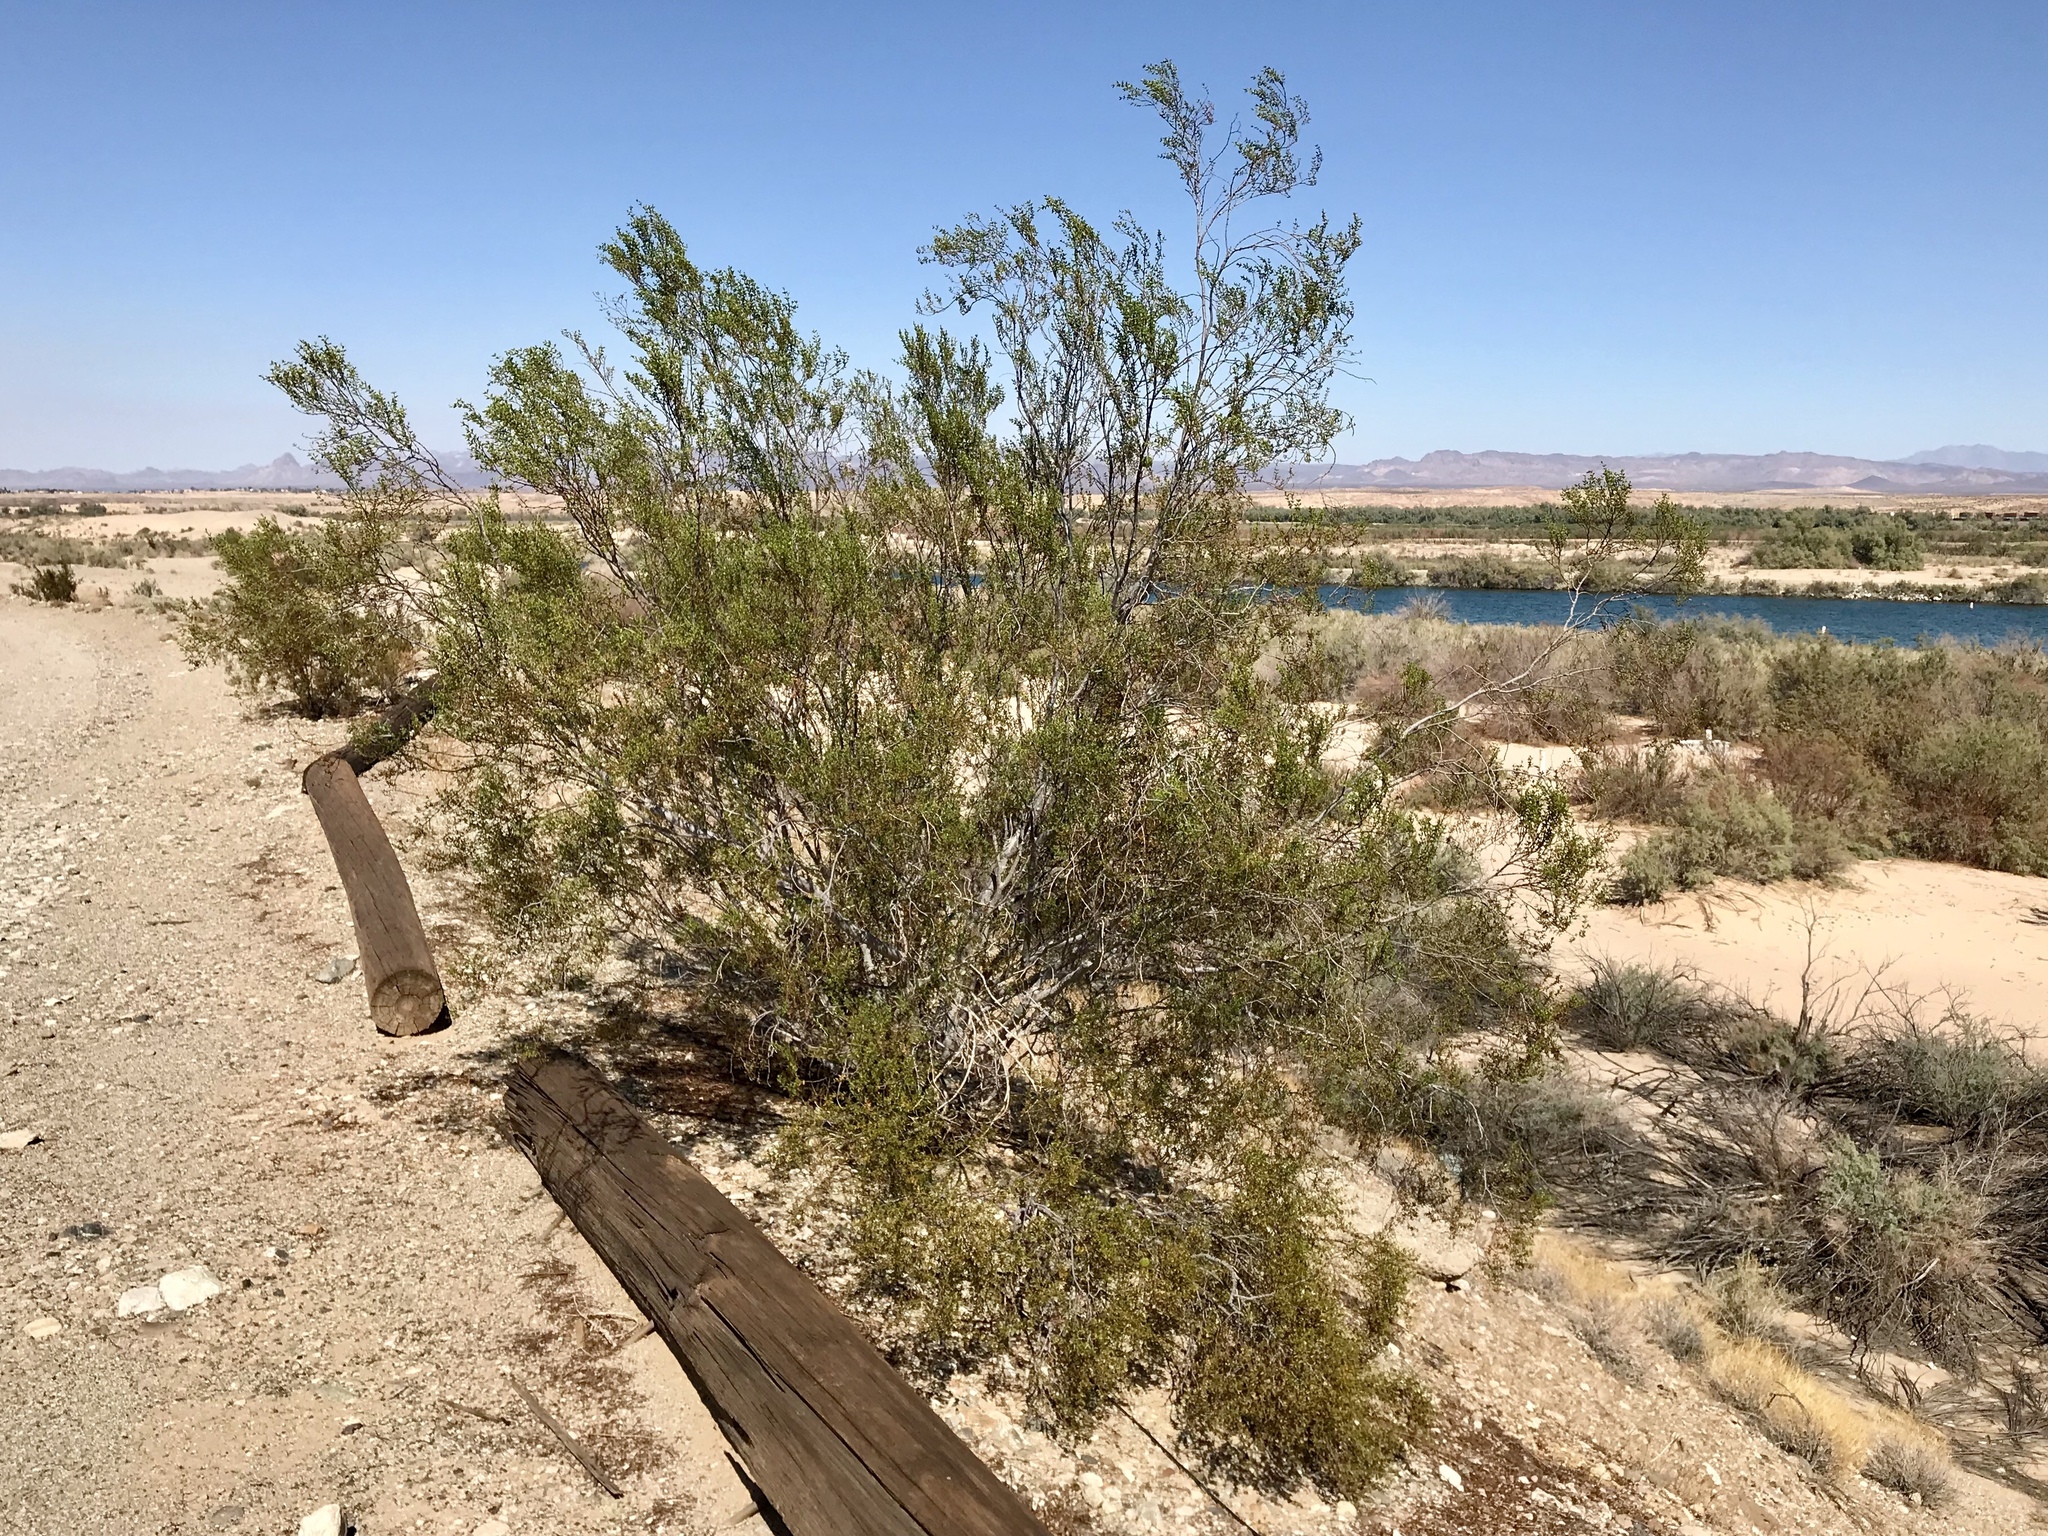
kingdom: Plantae
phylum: Tracheophyta
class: Magnoliopsida
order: Zygophyllales
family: Zygophyllaceae
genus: Larrea
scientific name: Larrea tridentata
